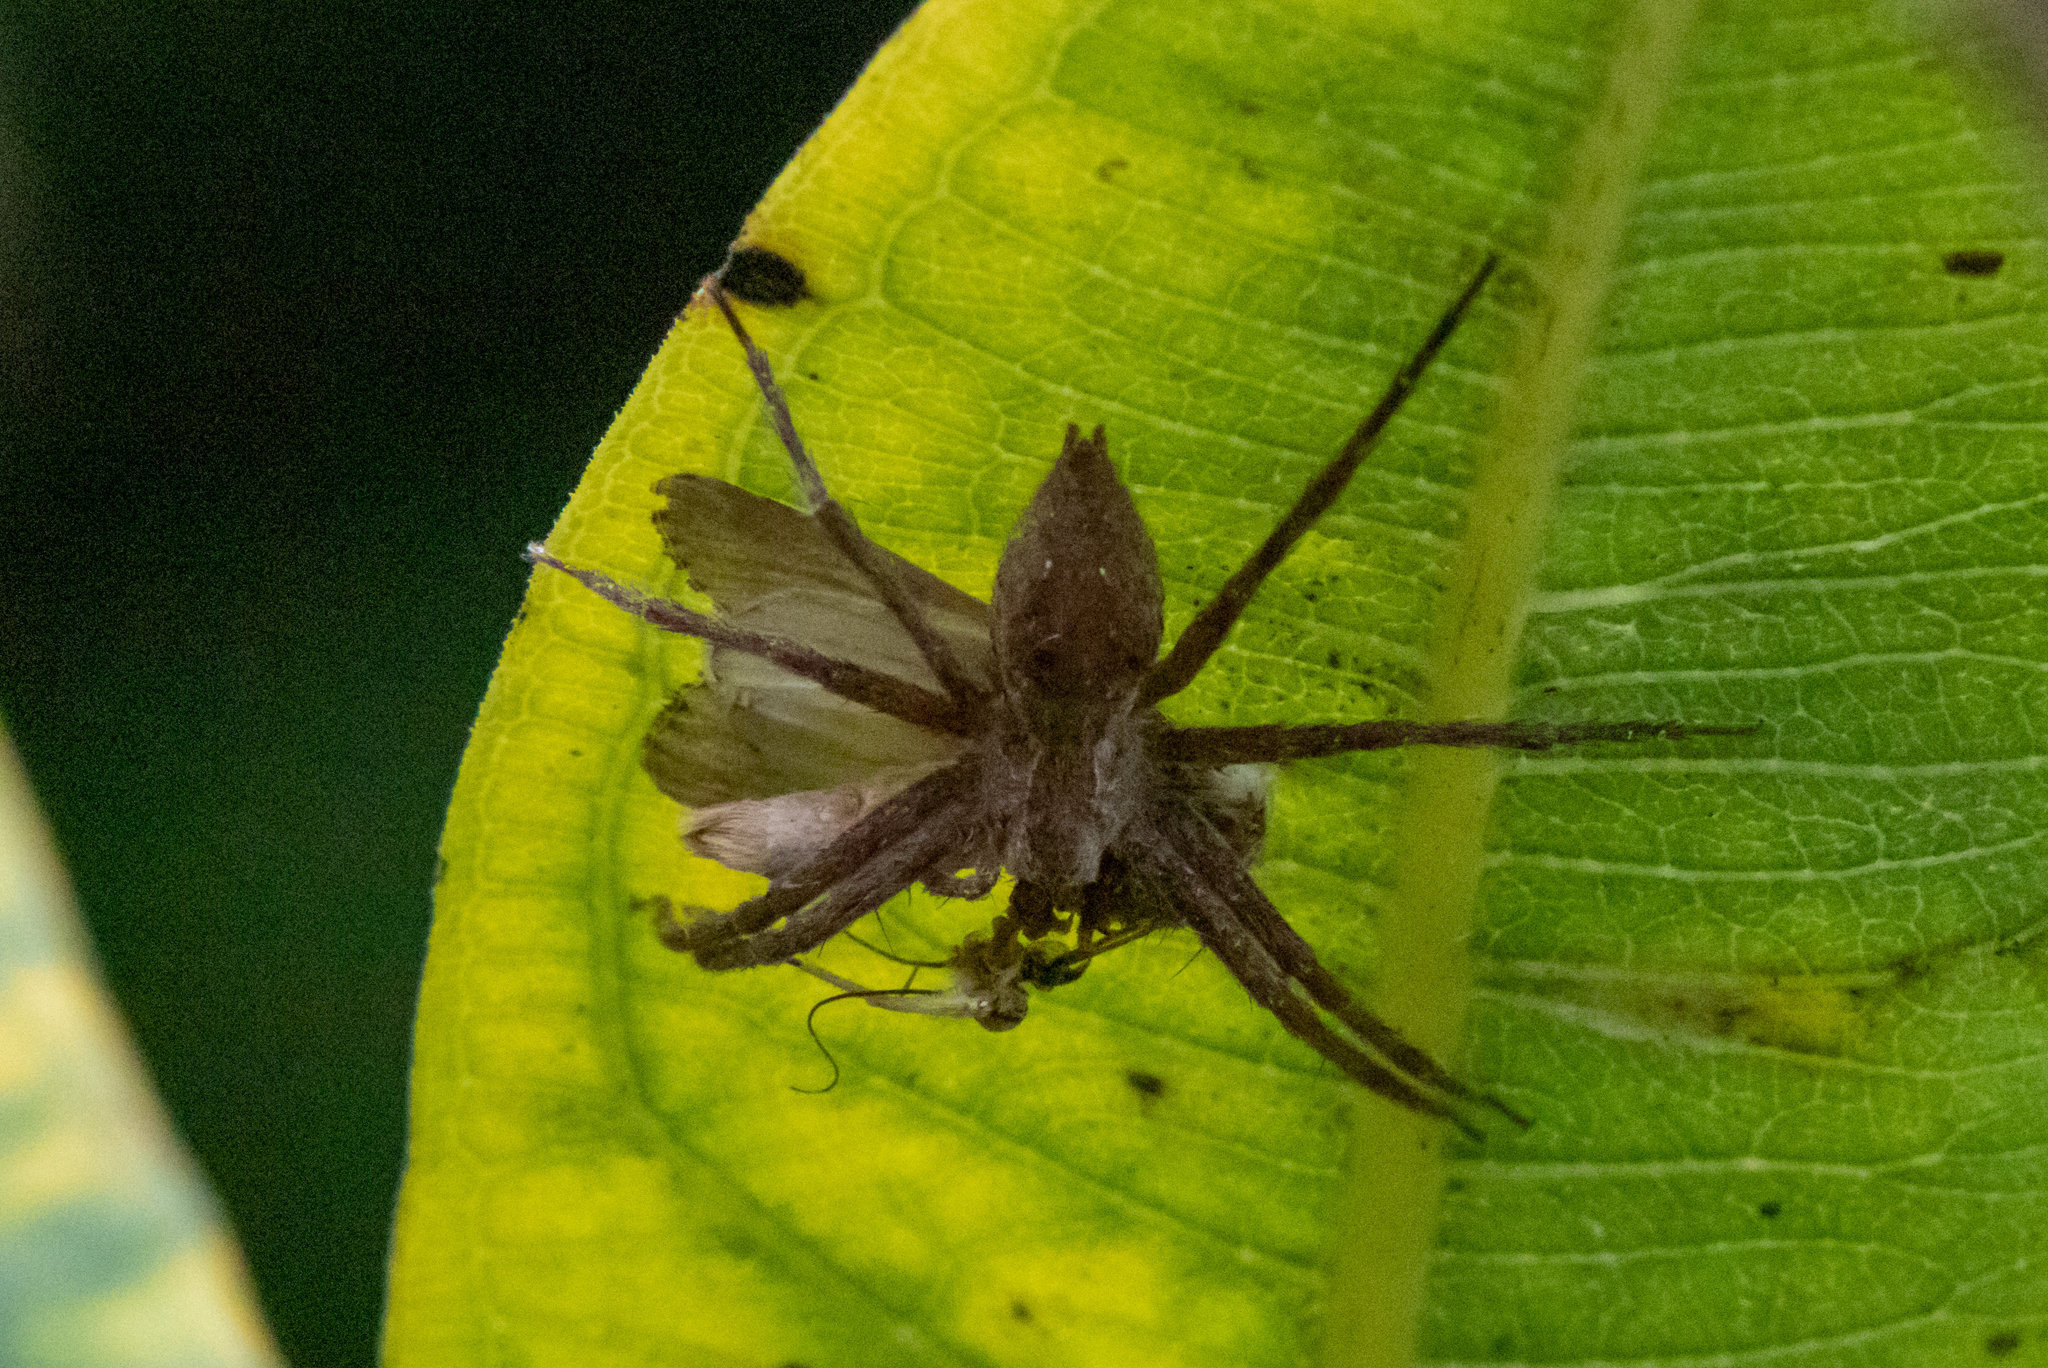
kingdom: Animalia
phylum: Arthropoda
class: Arachnida
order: Araneae
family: Pisauridae
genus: Pisaurina
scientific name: Pisaurina mira
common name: American nursery web spider
